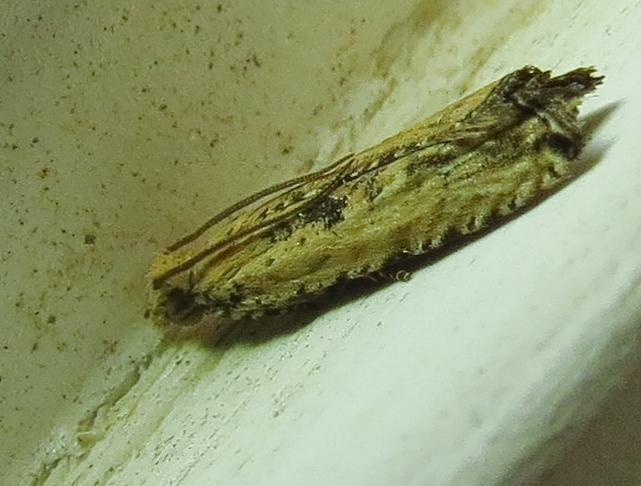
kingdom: Animalia
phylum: Arthropoda
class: Insecta
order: Lepidoptera
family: Tortricidae
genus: Bactra
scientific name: Bactra verutana
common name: Javelin moth
